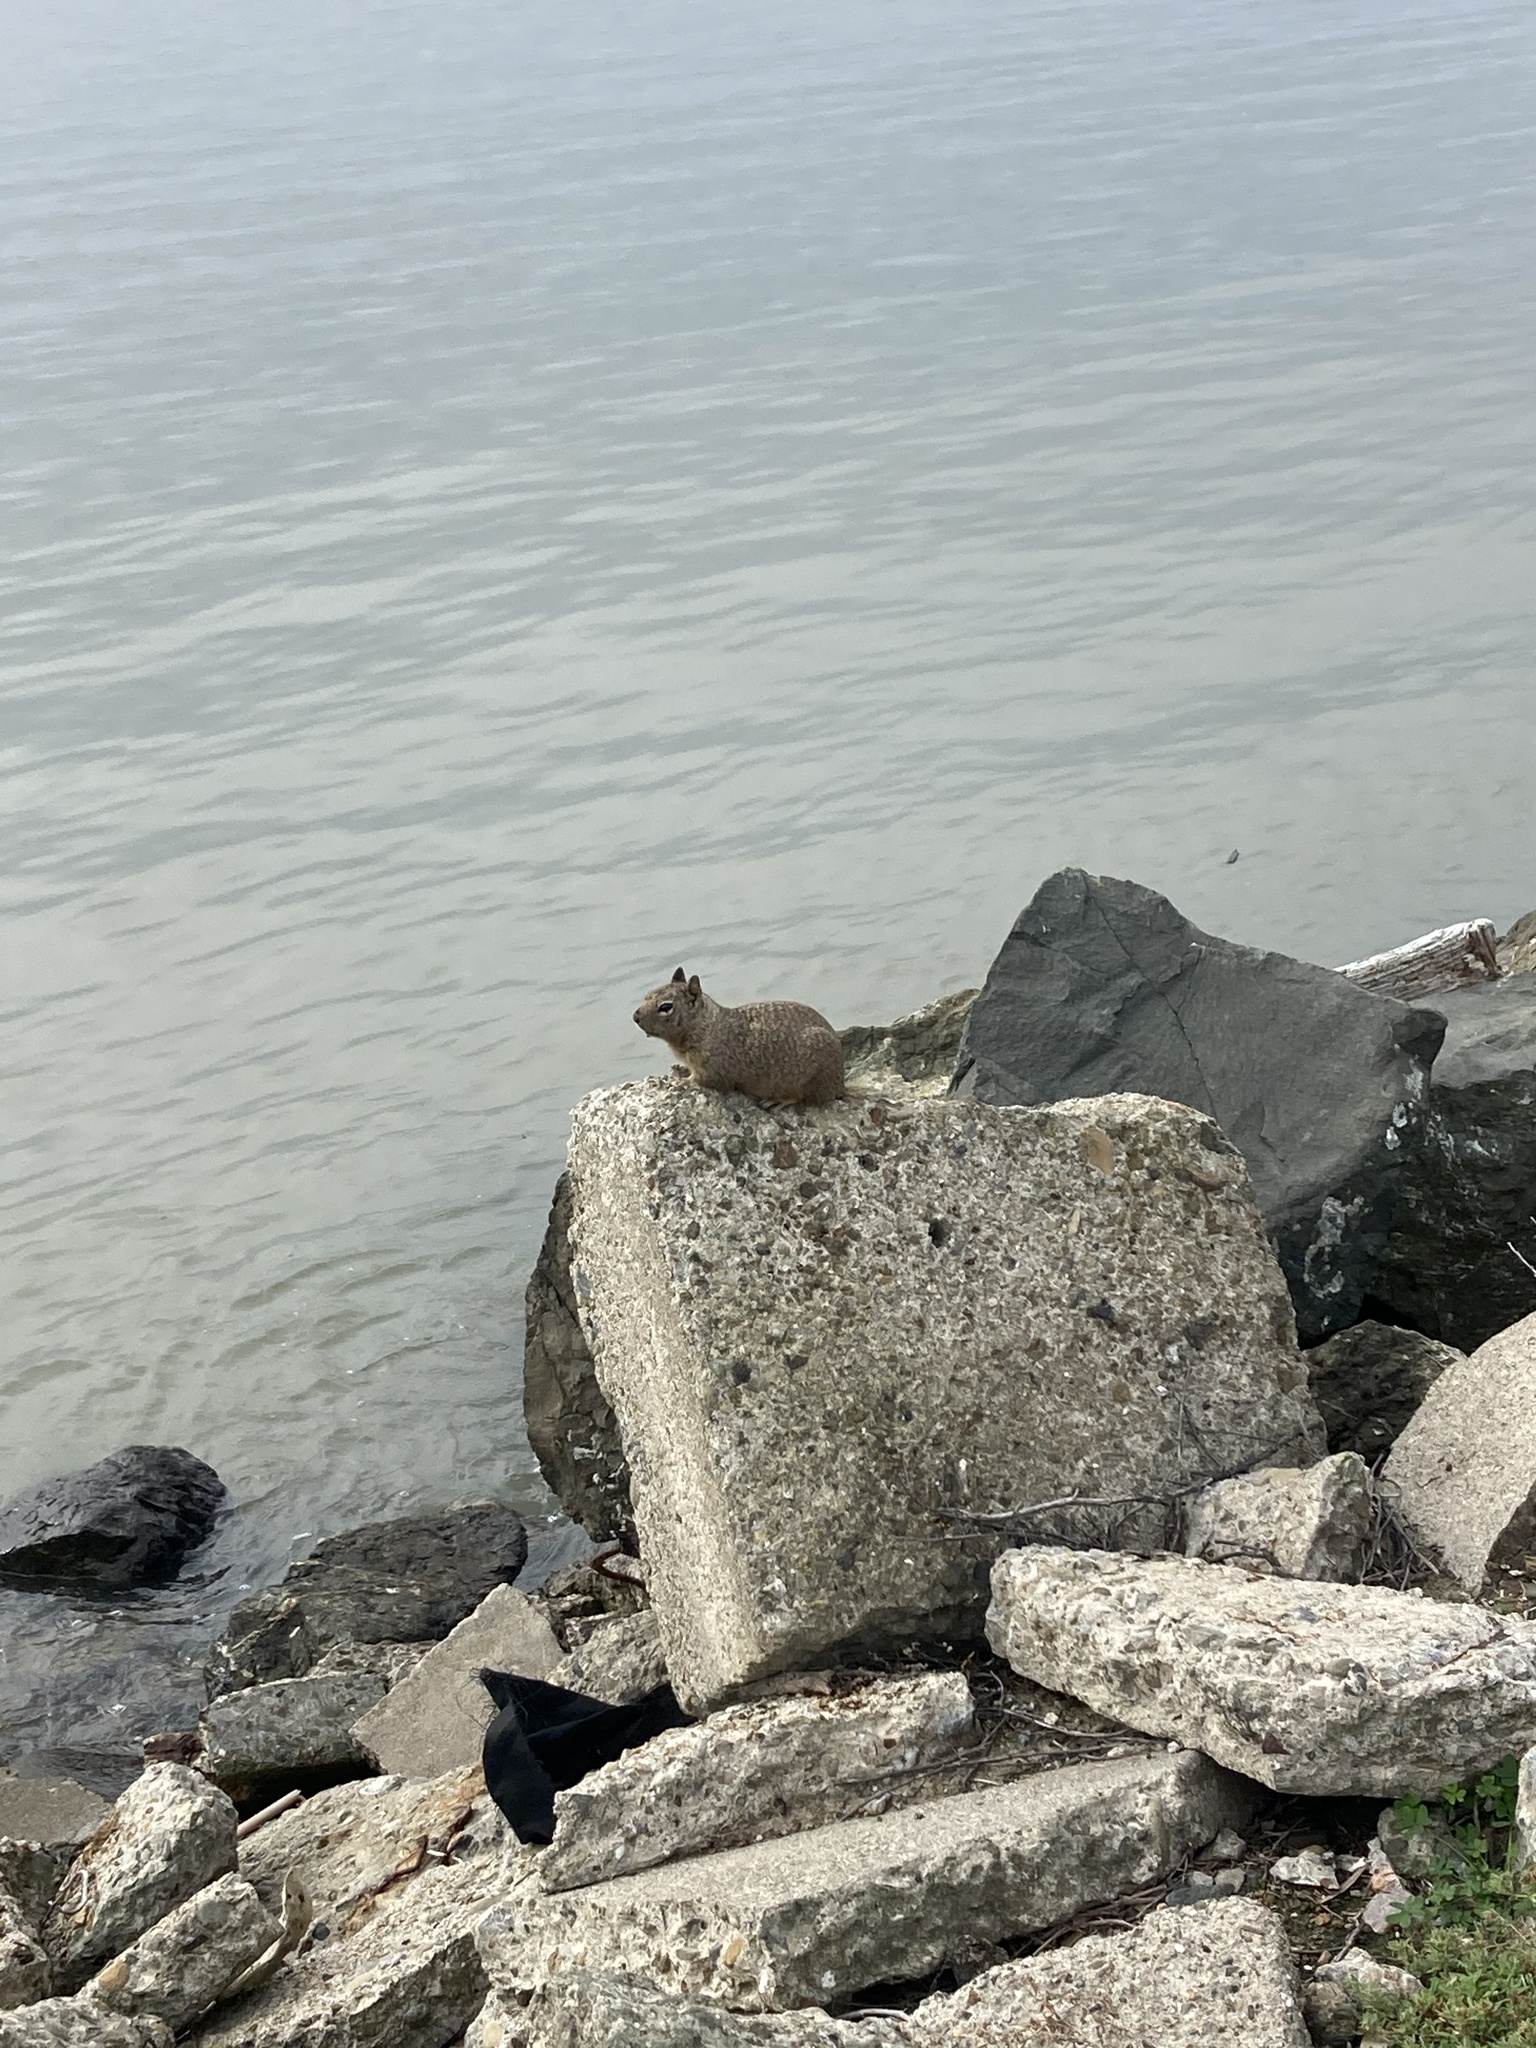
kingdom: Animalia
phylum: Chordata
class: Mammalia
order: Rodentia
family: Sciuridae
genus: Otospermophilus
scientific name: Otospermophilus beecheyi
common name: California ground squirrel
